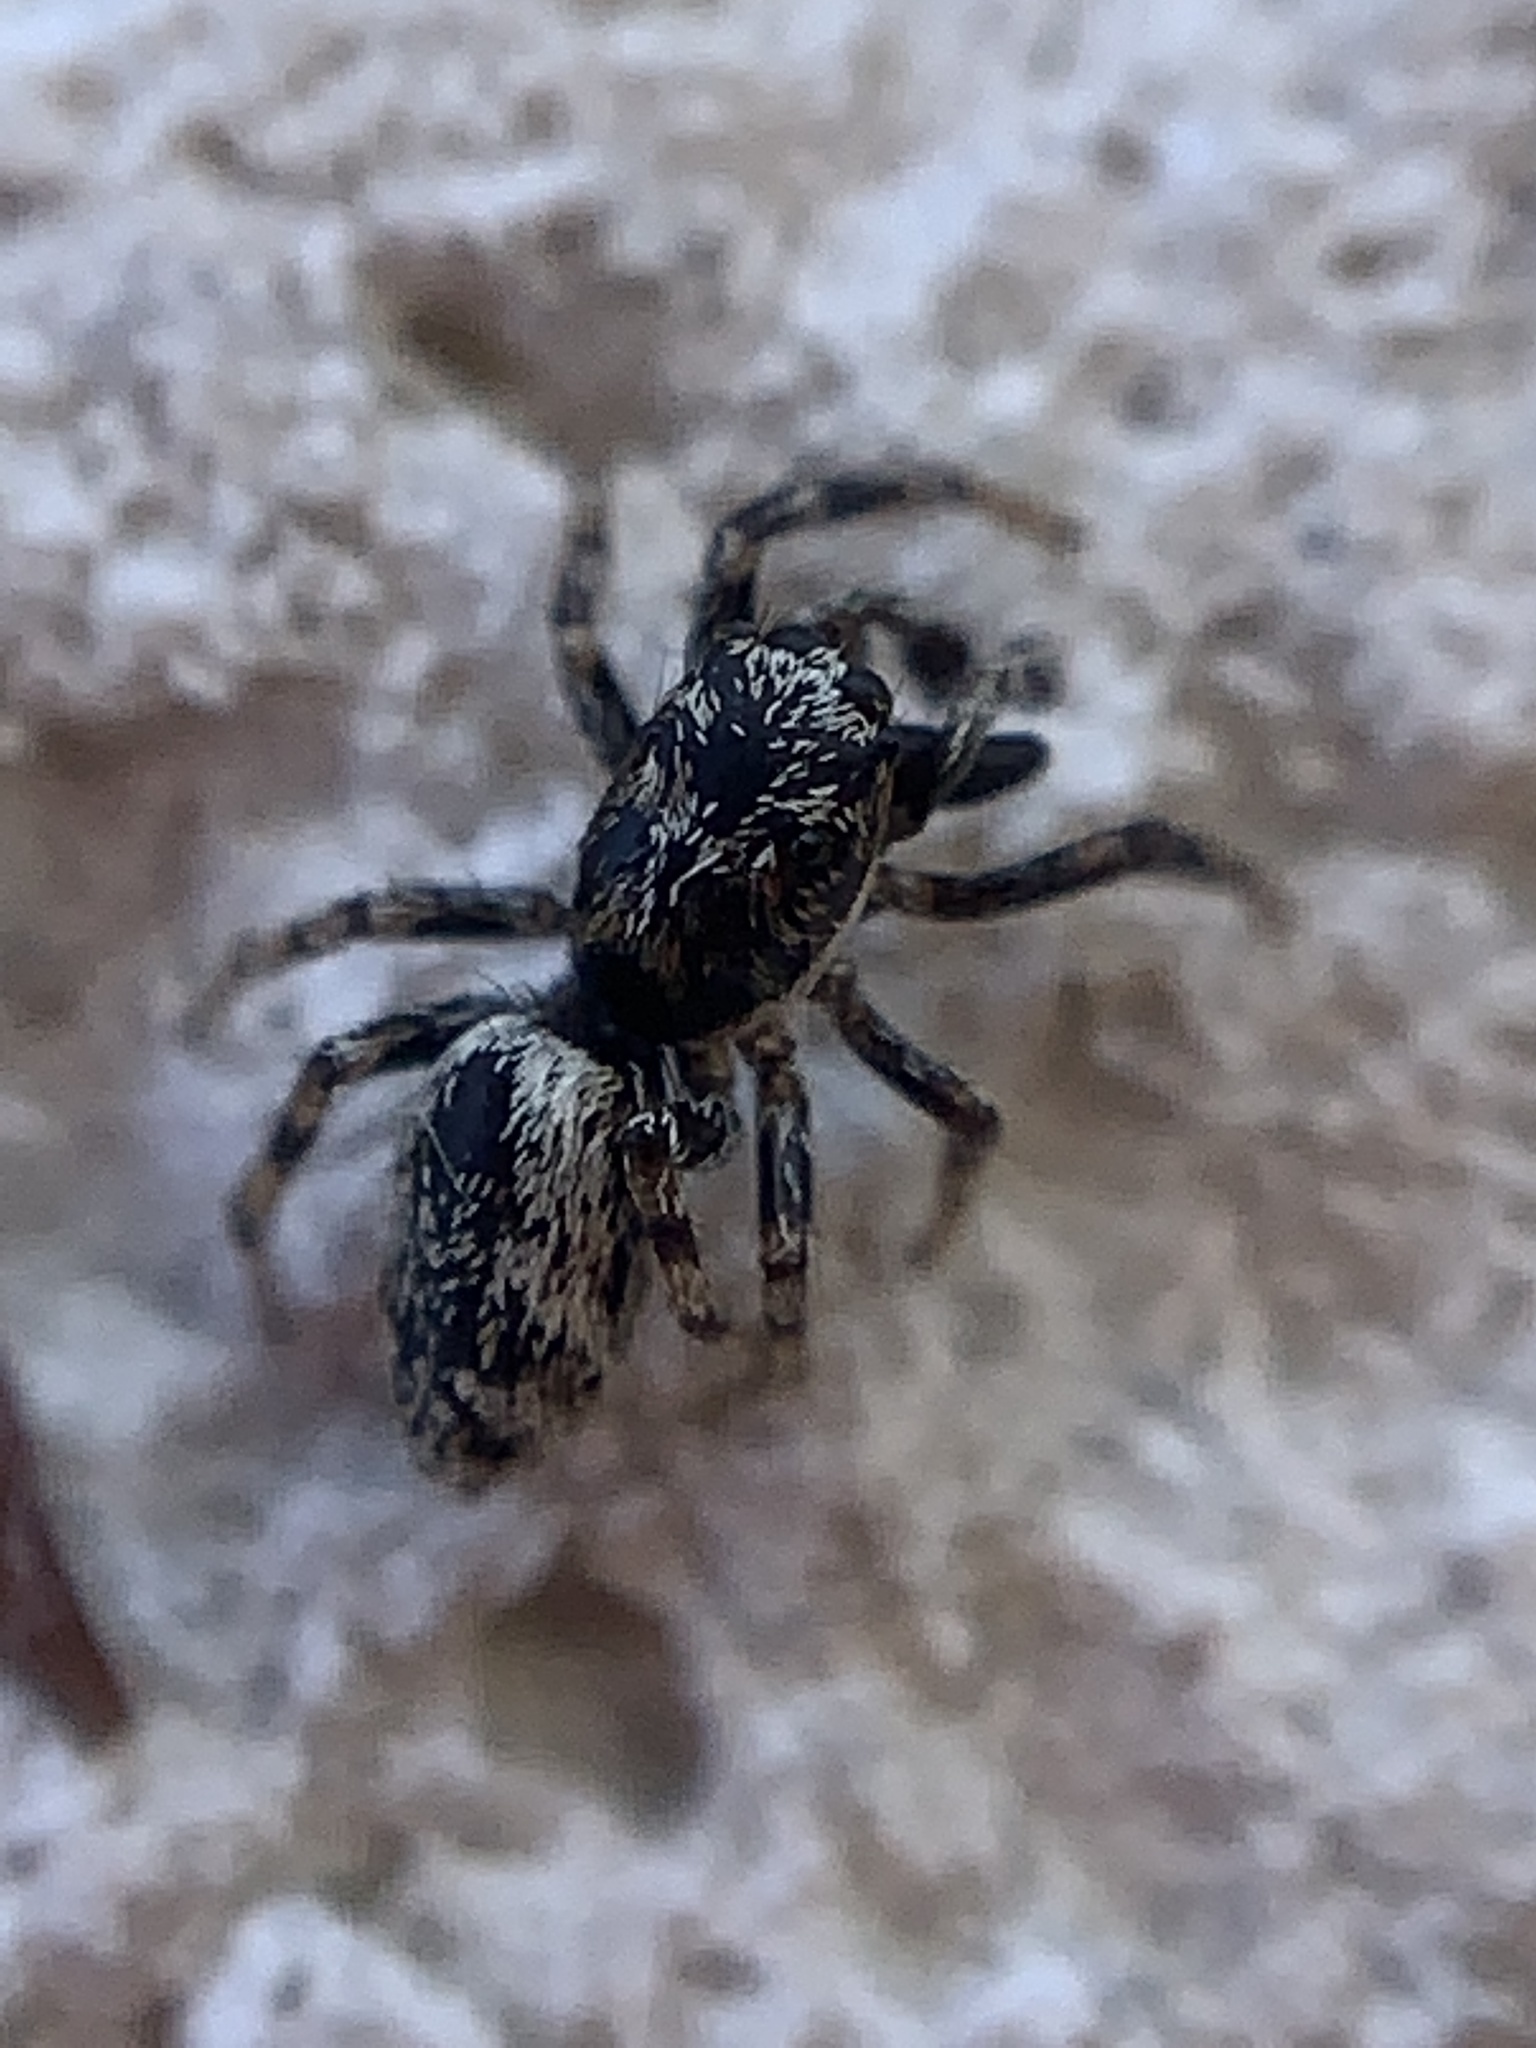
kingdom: Animalia
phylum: Arthropoda
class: Arachnida
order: Araneae
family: Salticidae
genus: Salticus
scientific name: Salticus
